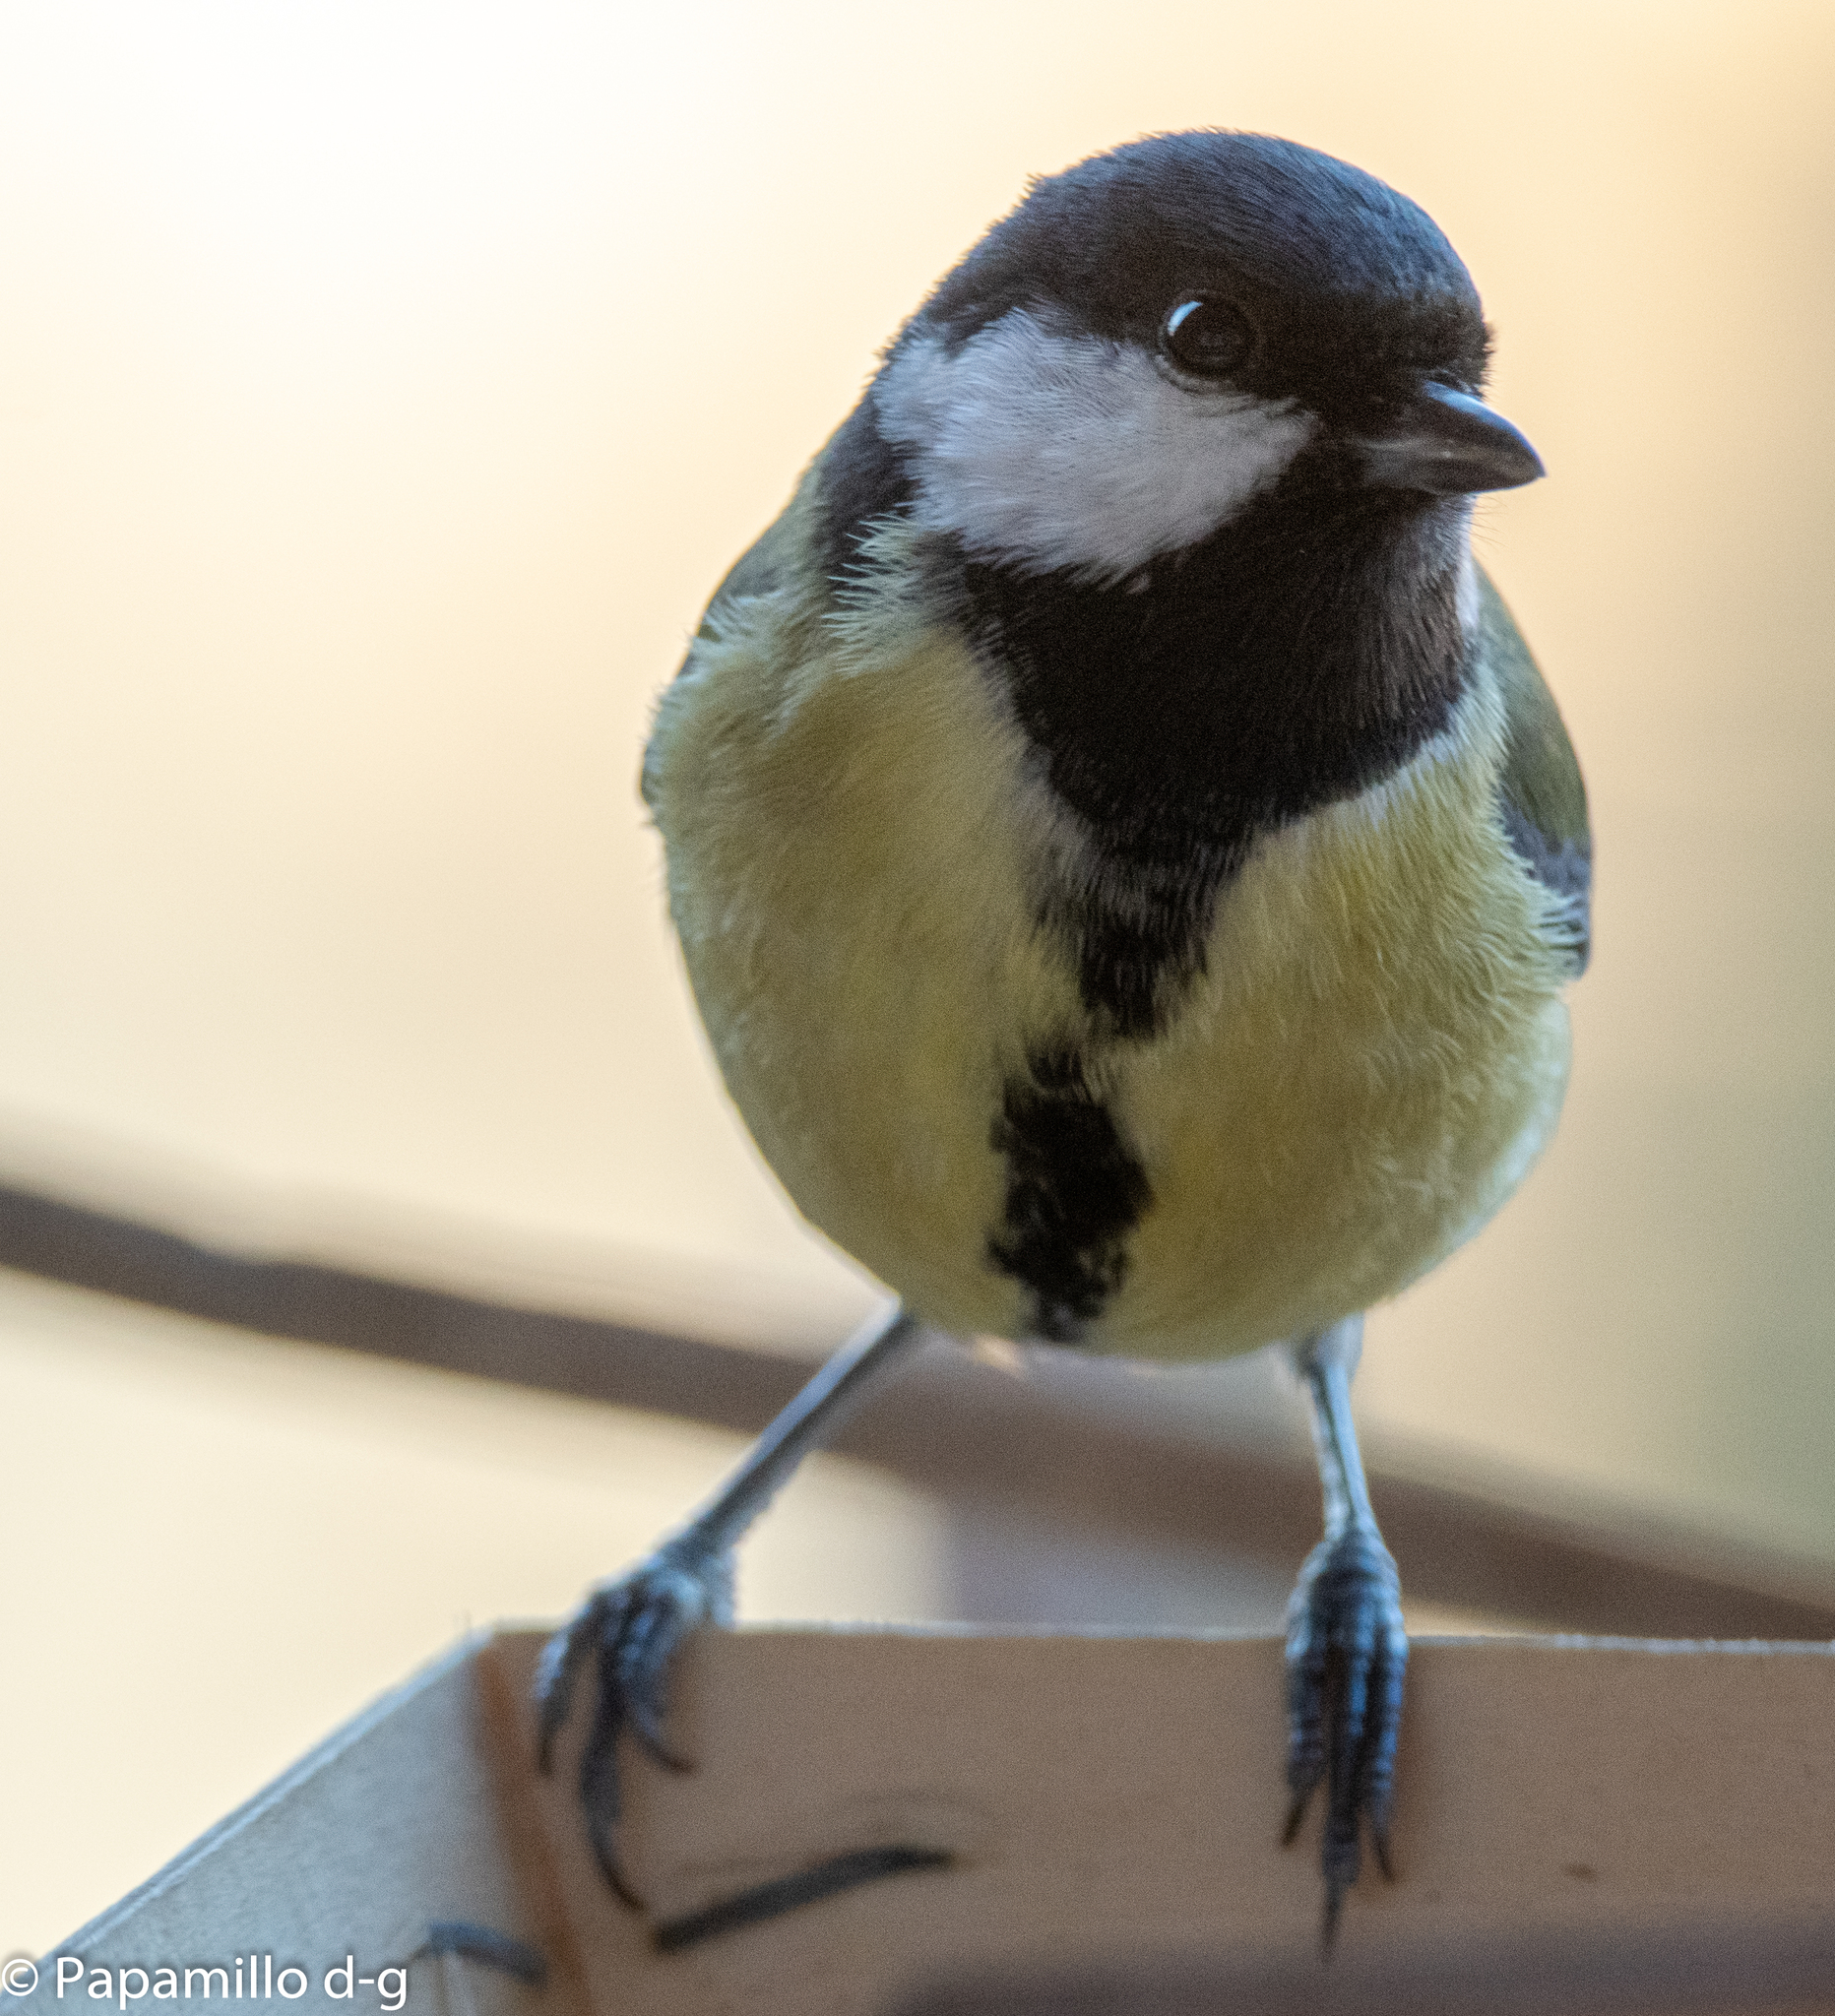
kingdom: Animalia
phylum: Chordata
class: Aves
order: Passeriformes
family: Paridae
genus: Parus
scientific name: Parus major
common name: Great tit
